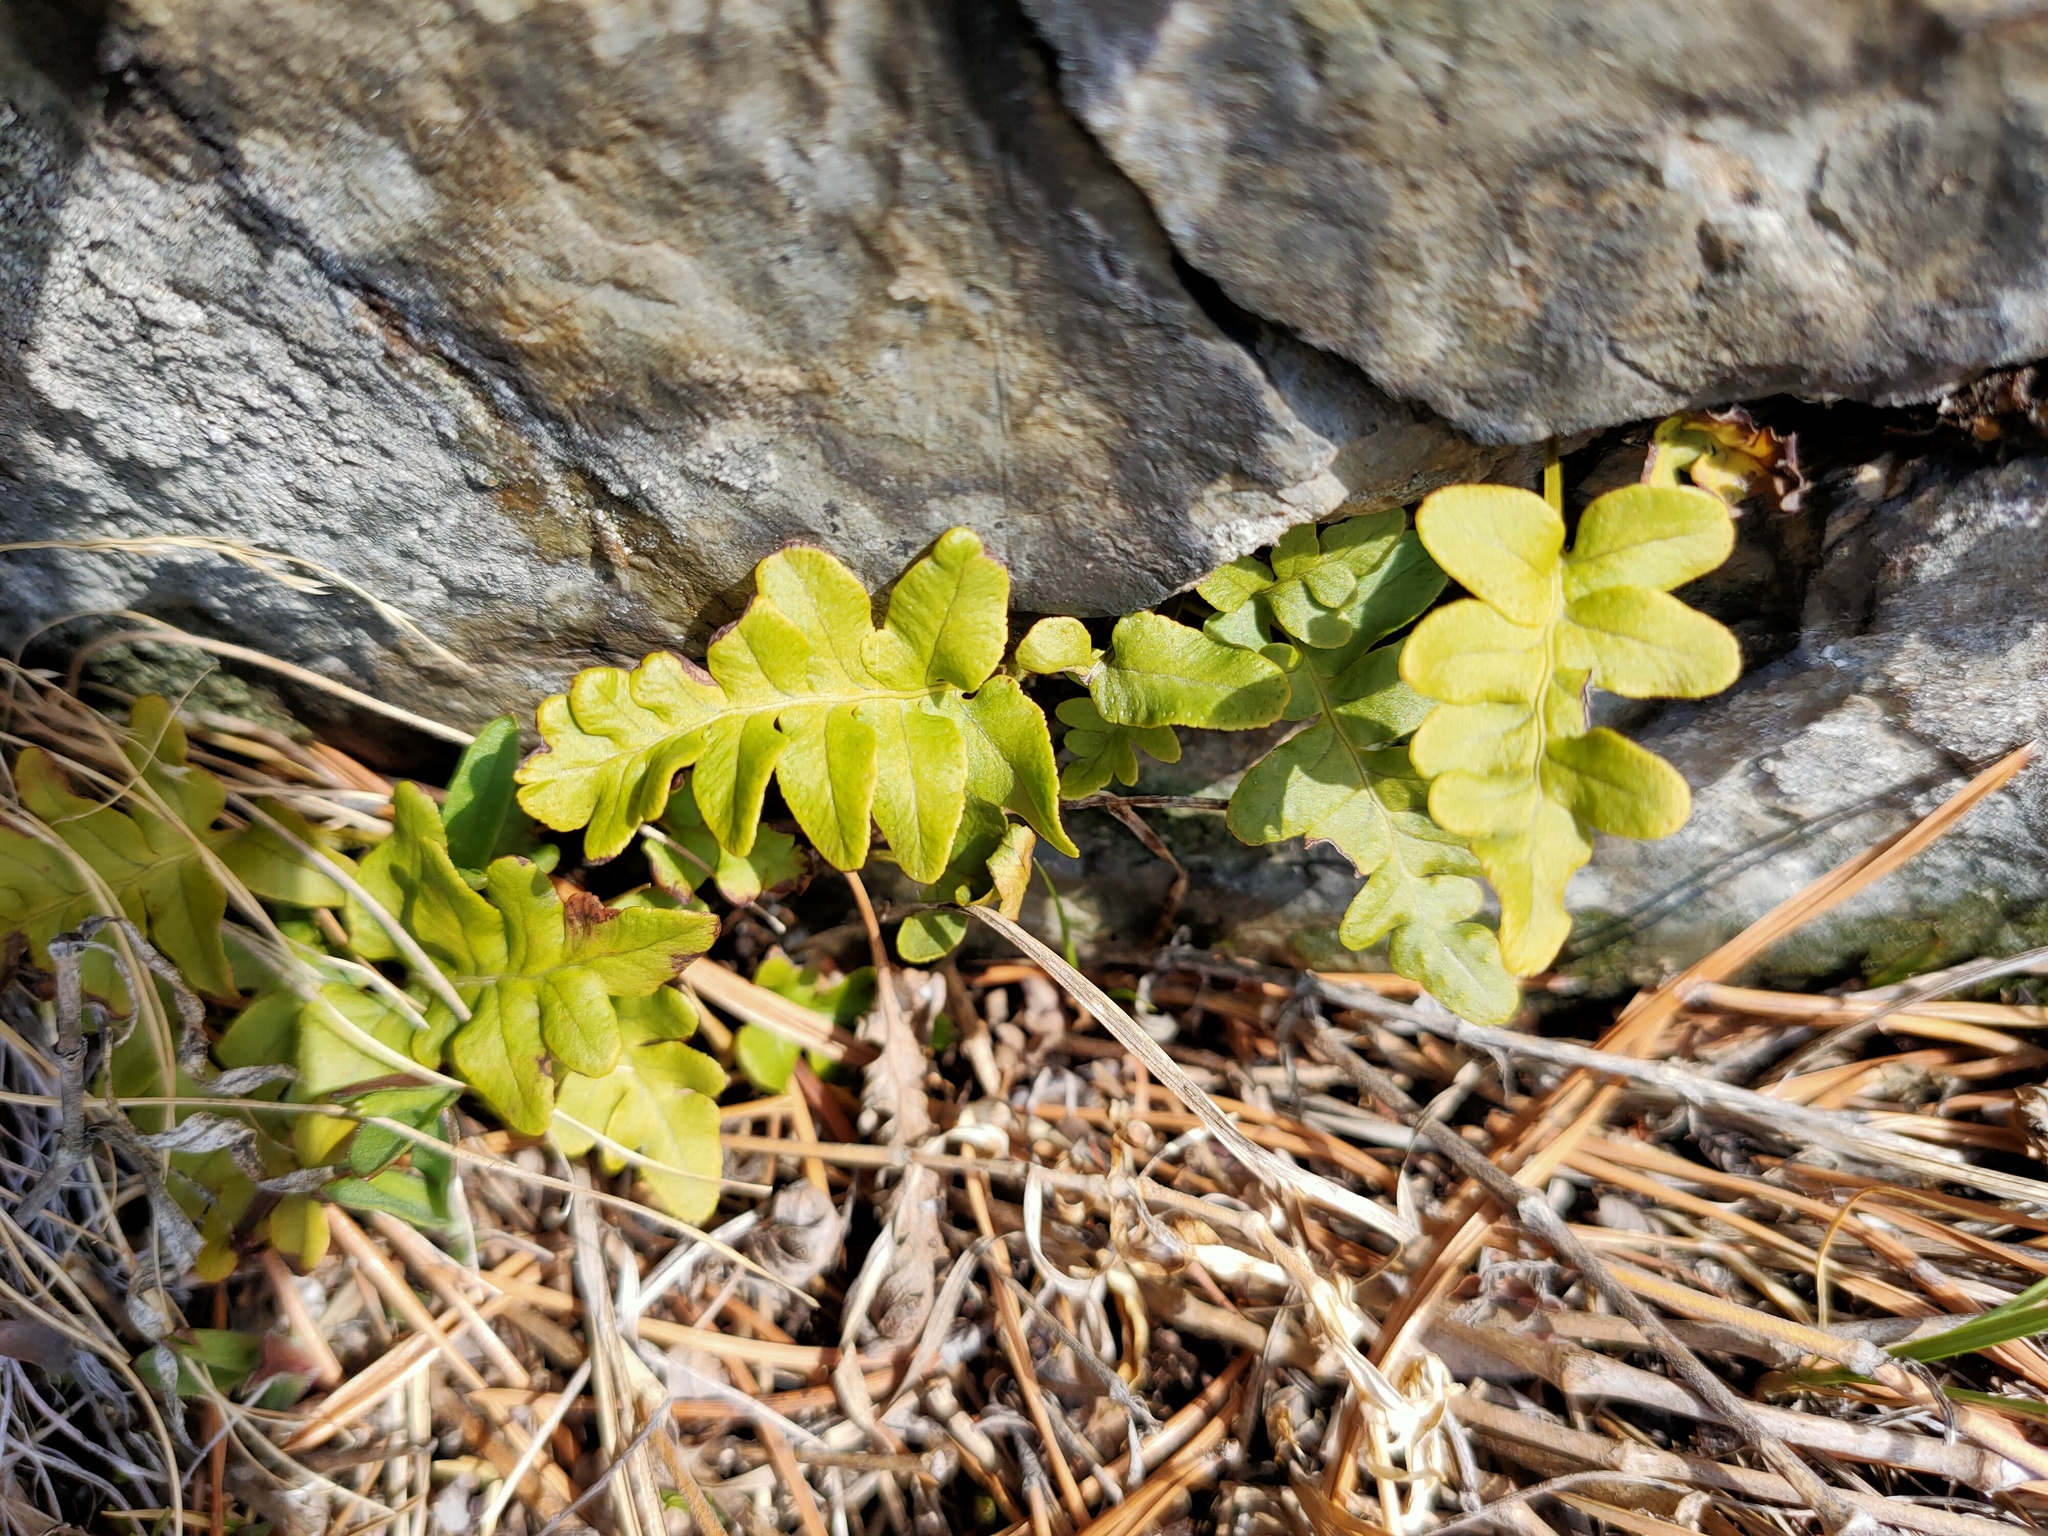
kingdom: Plantae
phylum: Tracheophyta
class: Polypodiopsida
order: Polypodiales
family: Polypodiaceae
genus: Polypodium
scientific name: Polypodium vulgare
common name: Common polypody
